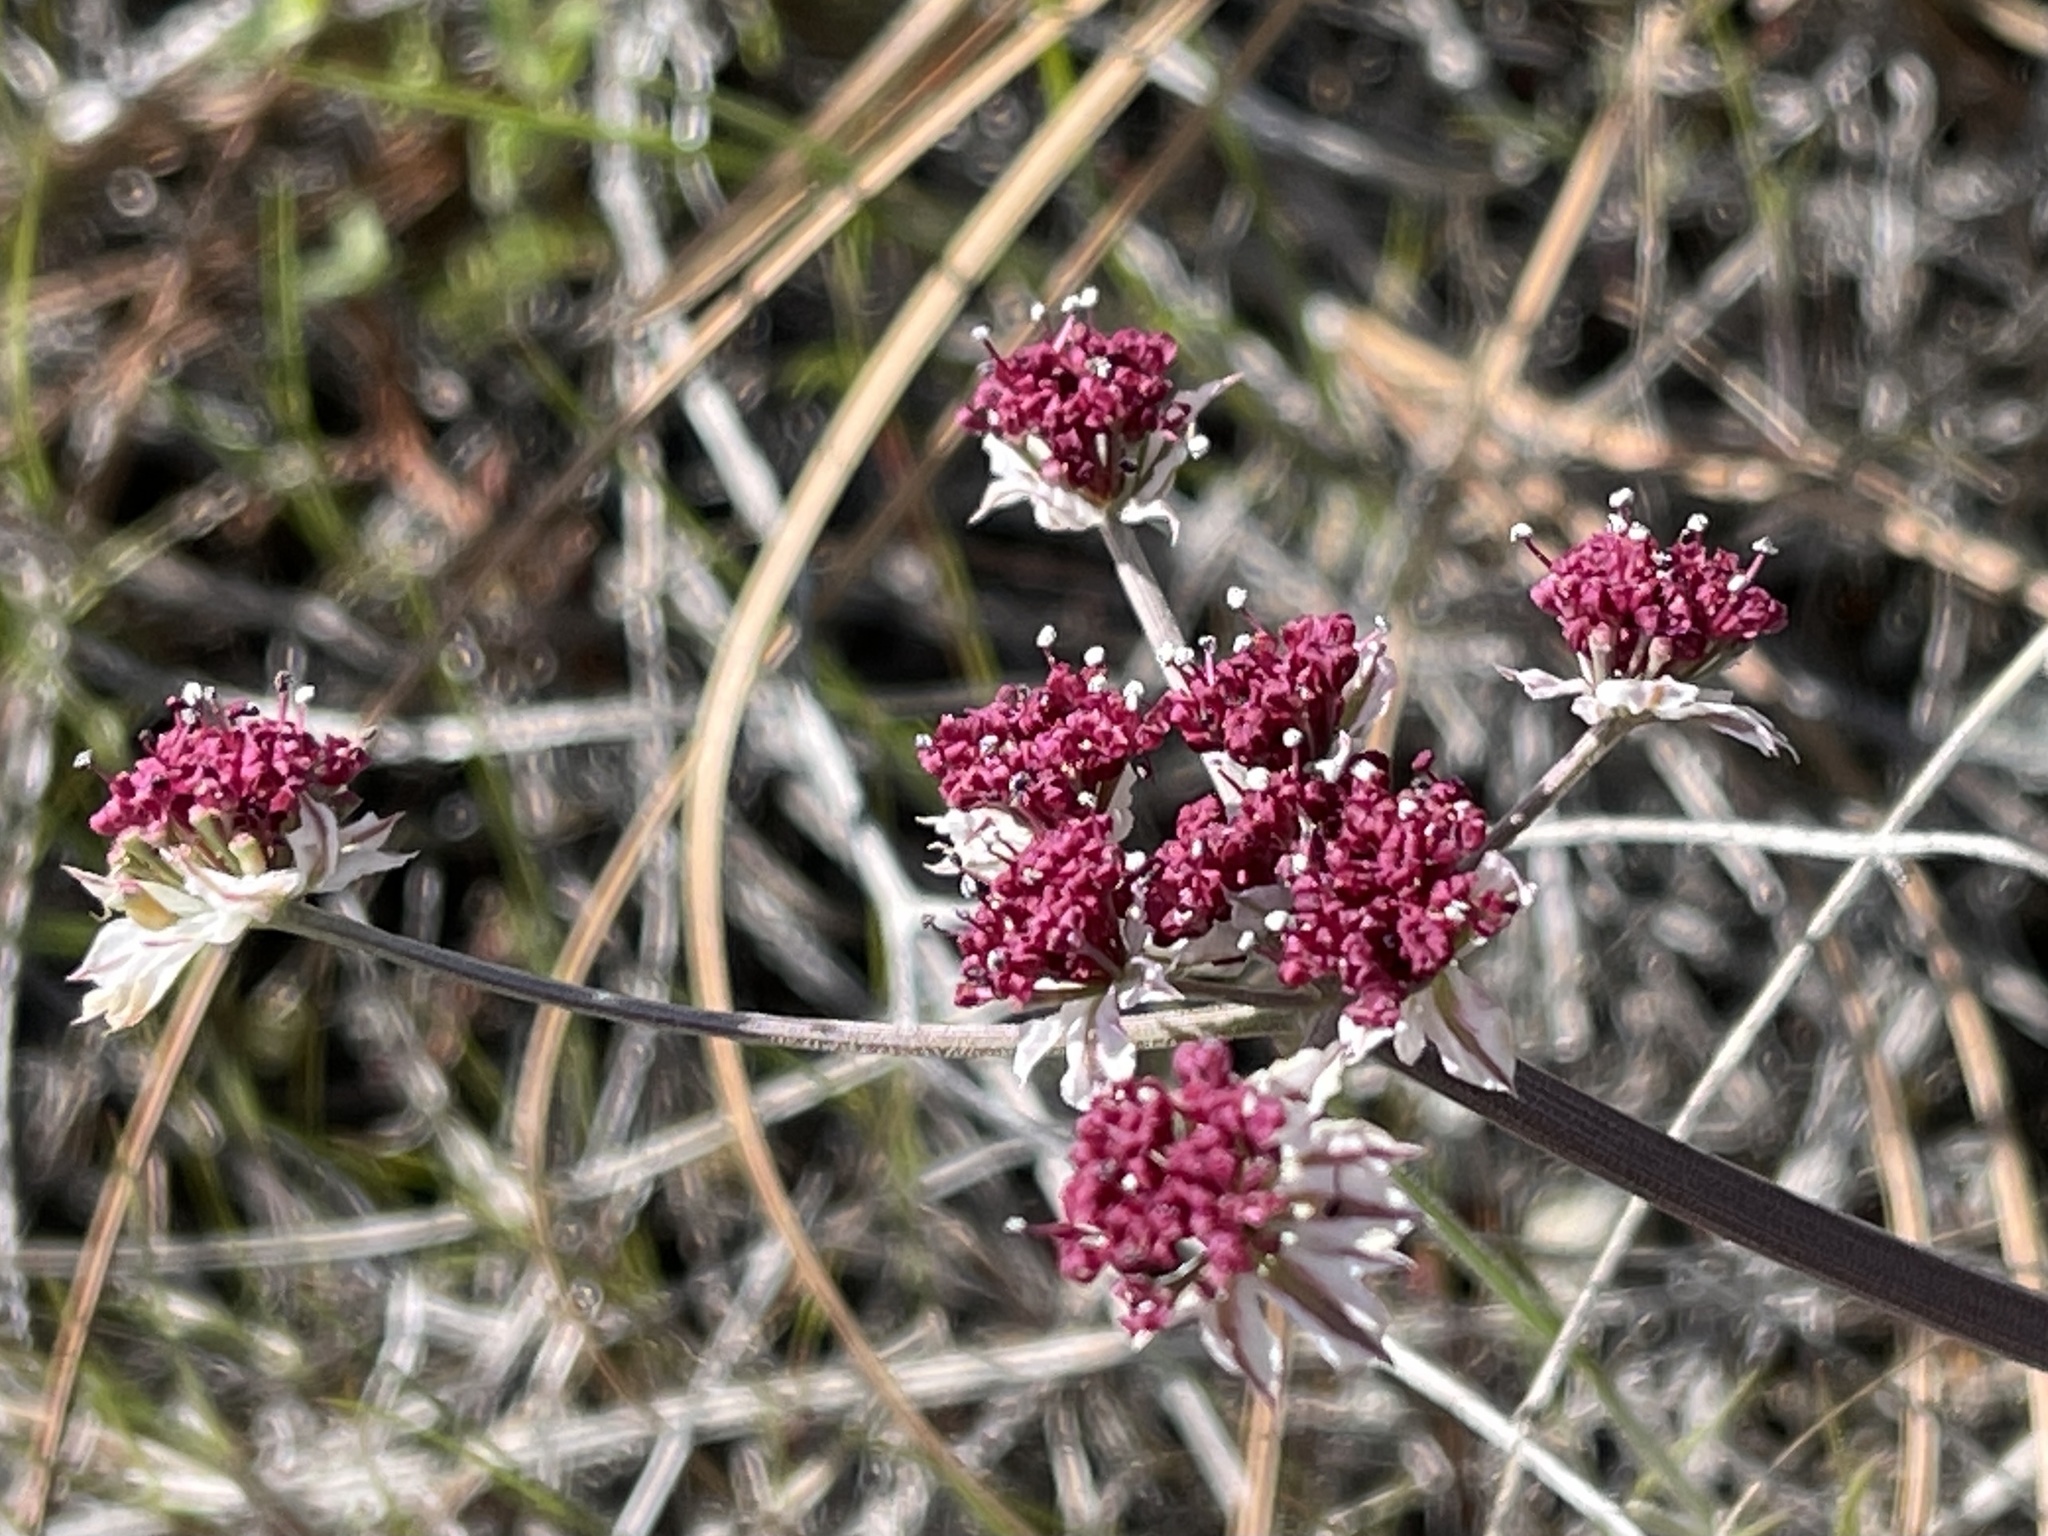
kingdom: Plantae
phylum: Tracheophyta
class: Magnoliopsida
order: Apiales
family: Apiaceae
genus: Lomatium
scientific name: Lomatium hooveri
